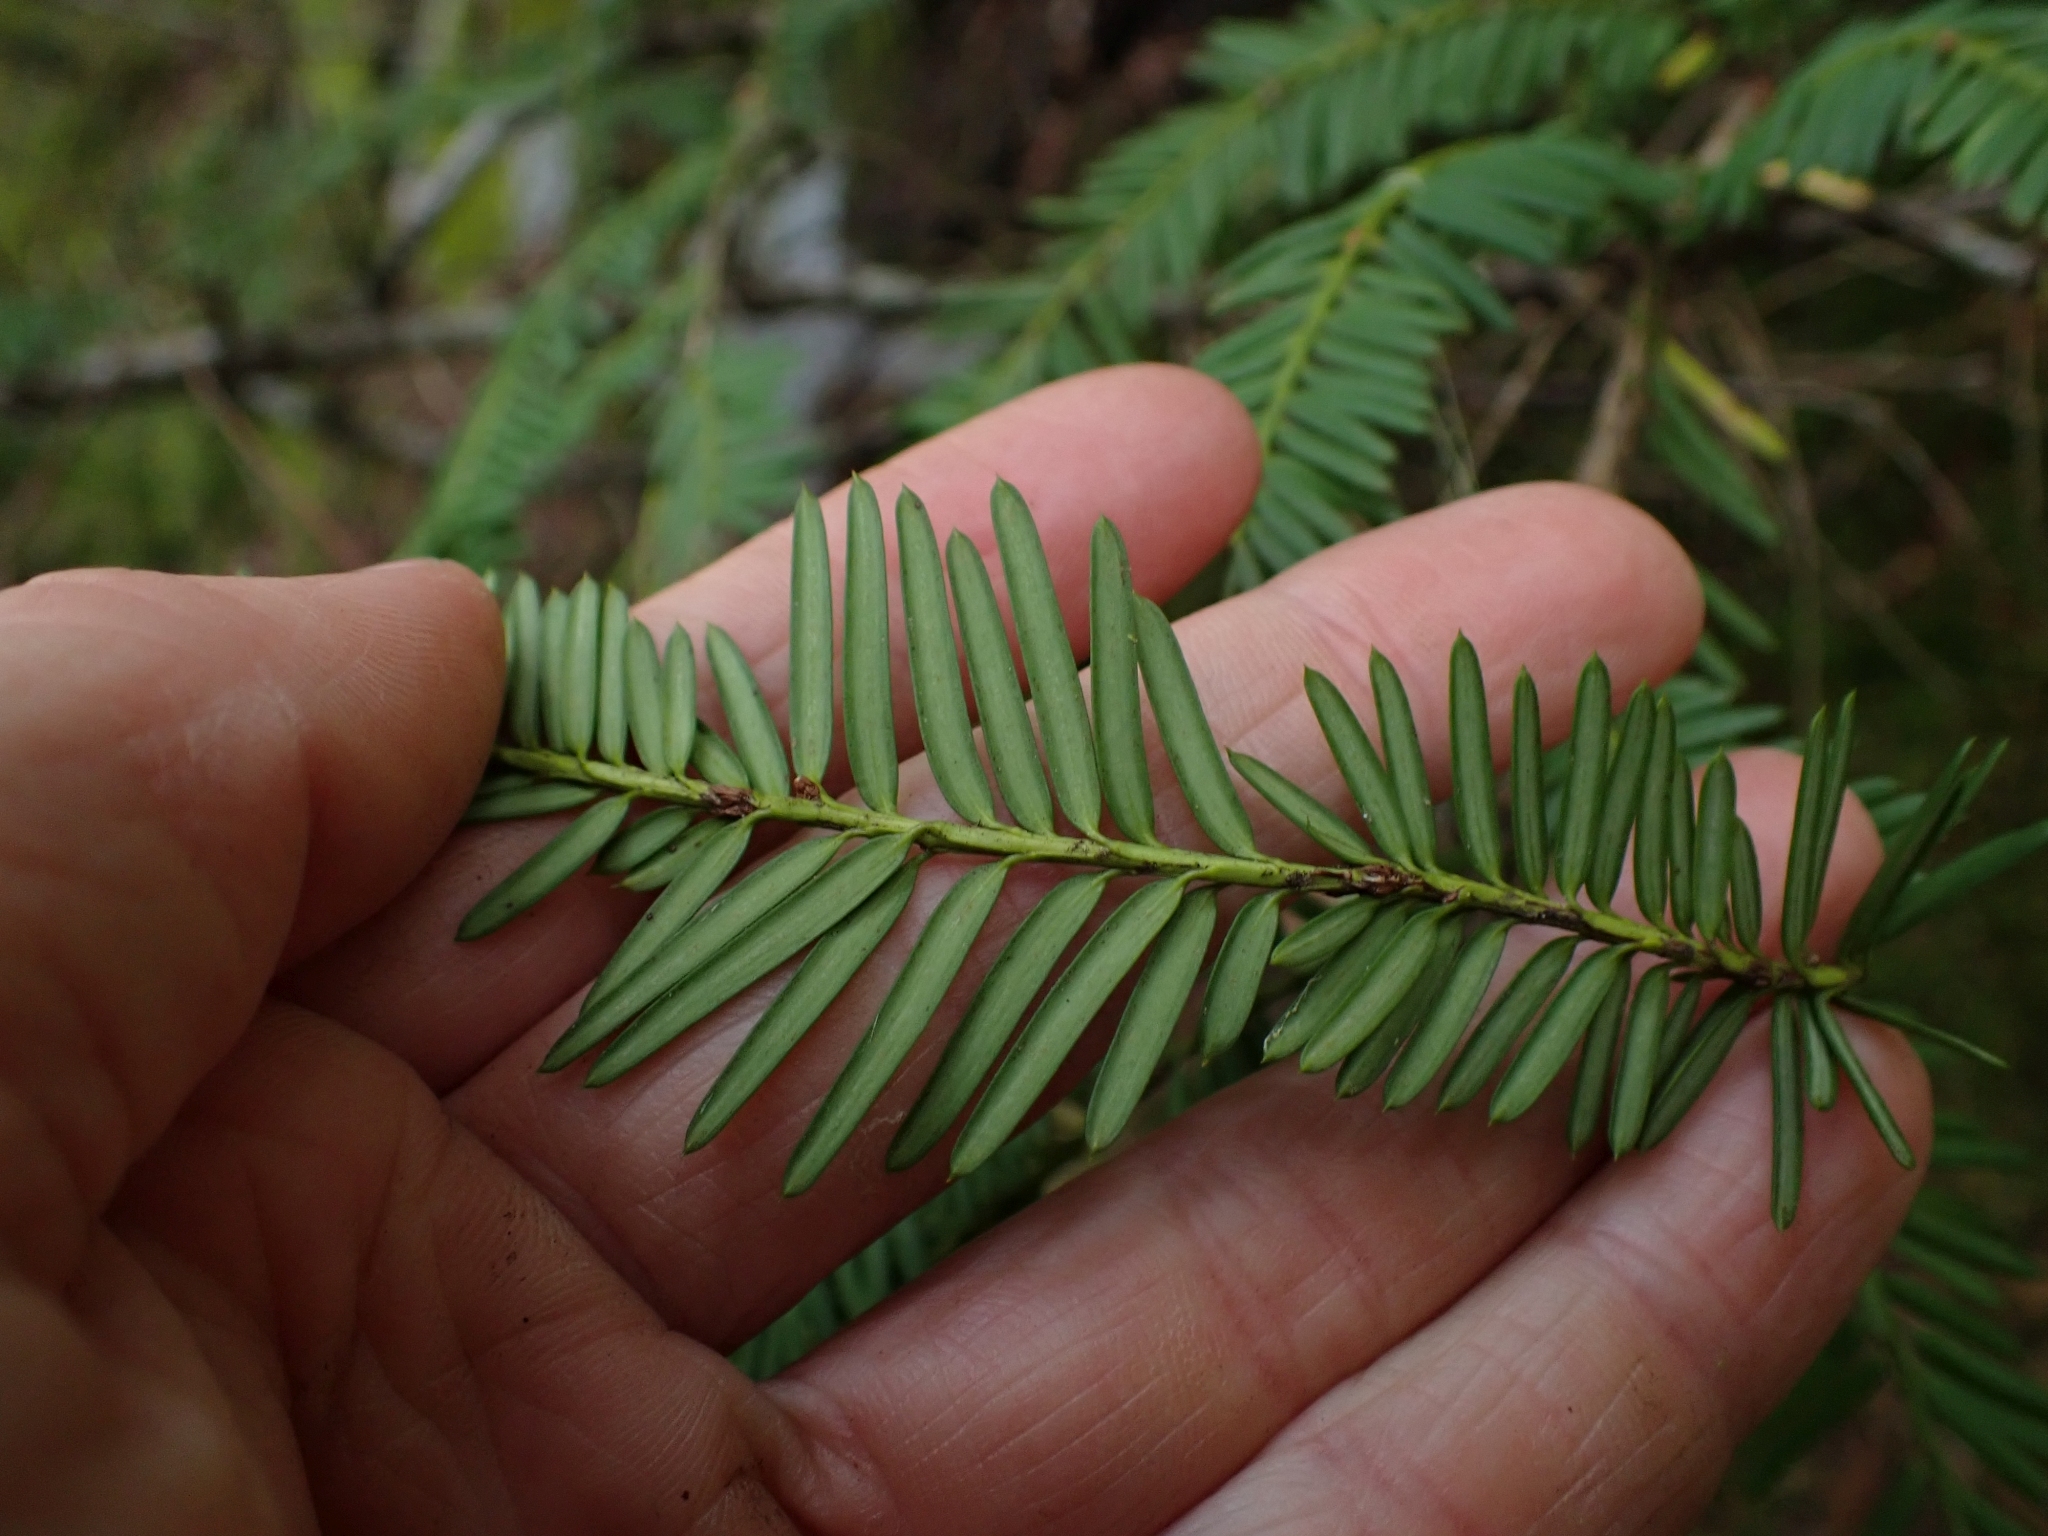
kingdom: Plantae
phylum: Tracheophyta
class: Pinopsida
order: Pinales
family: Taxaceae
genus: Taxus
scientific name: Taxus brevifolia
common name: Pacific yew
